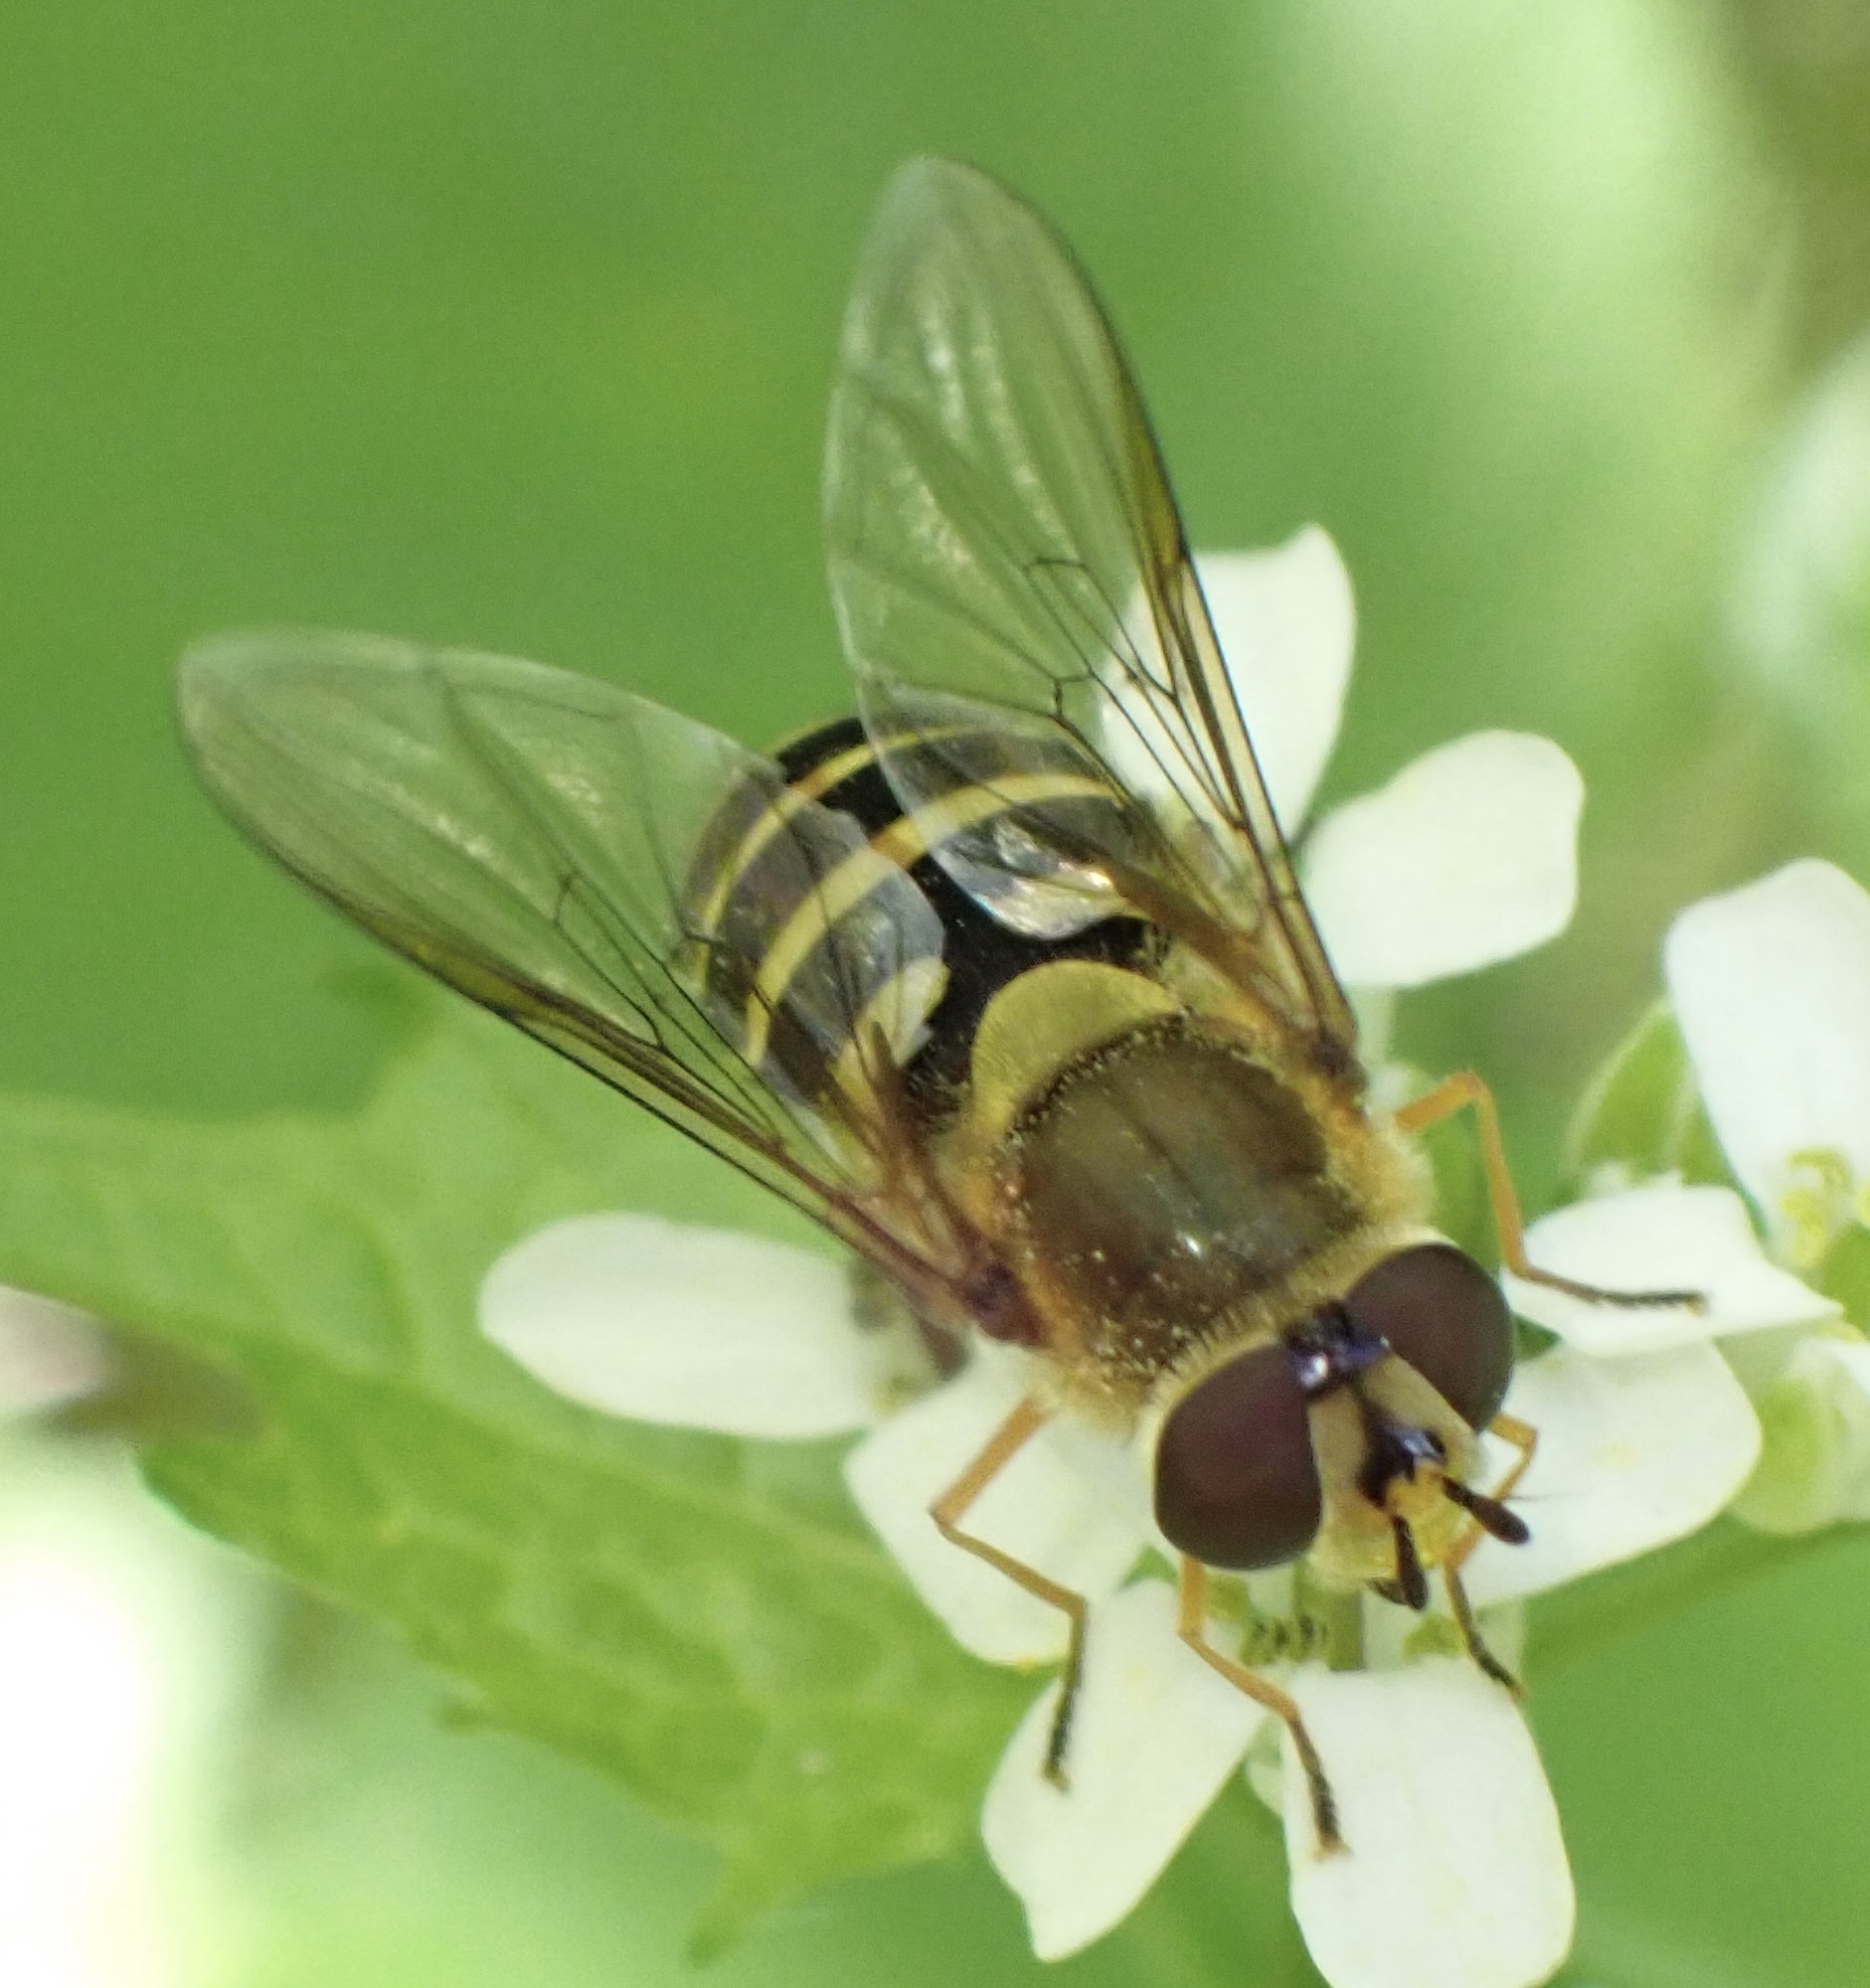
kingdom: Animalia
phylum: Arthropoda
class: Insecta
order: Diptera
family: Syrphidae
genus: Syrphus
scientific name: Syrphus
